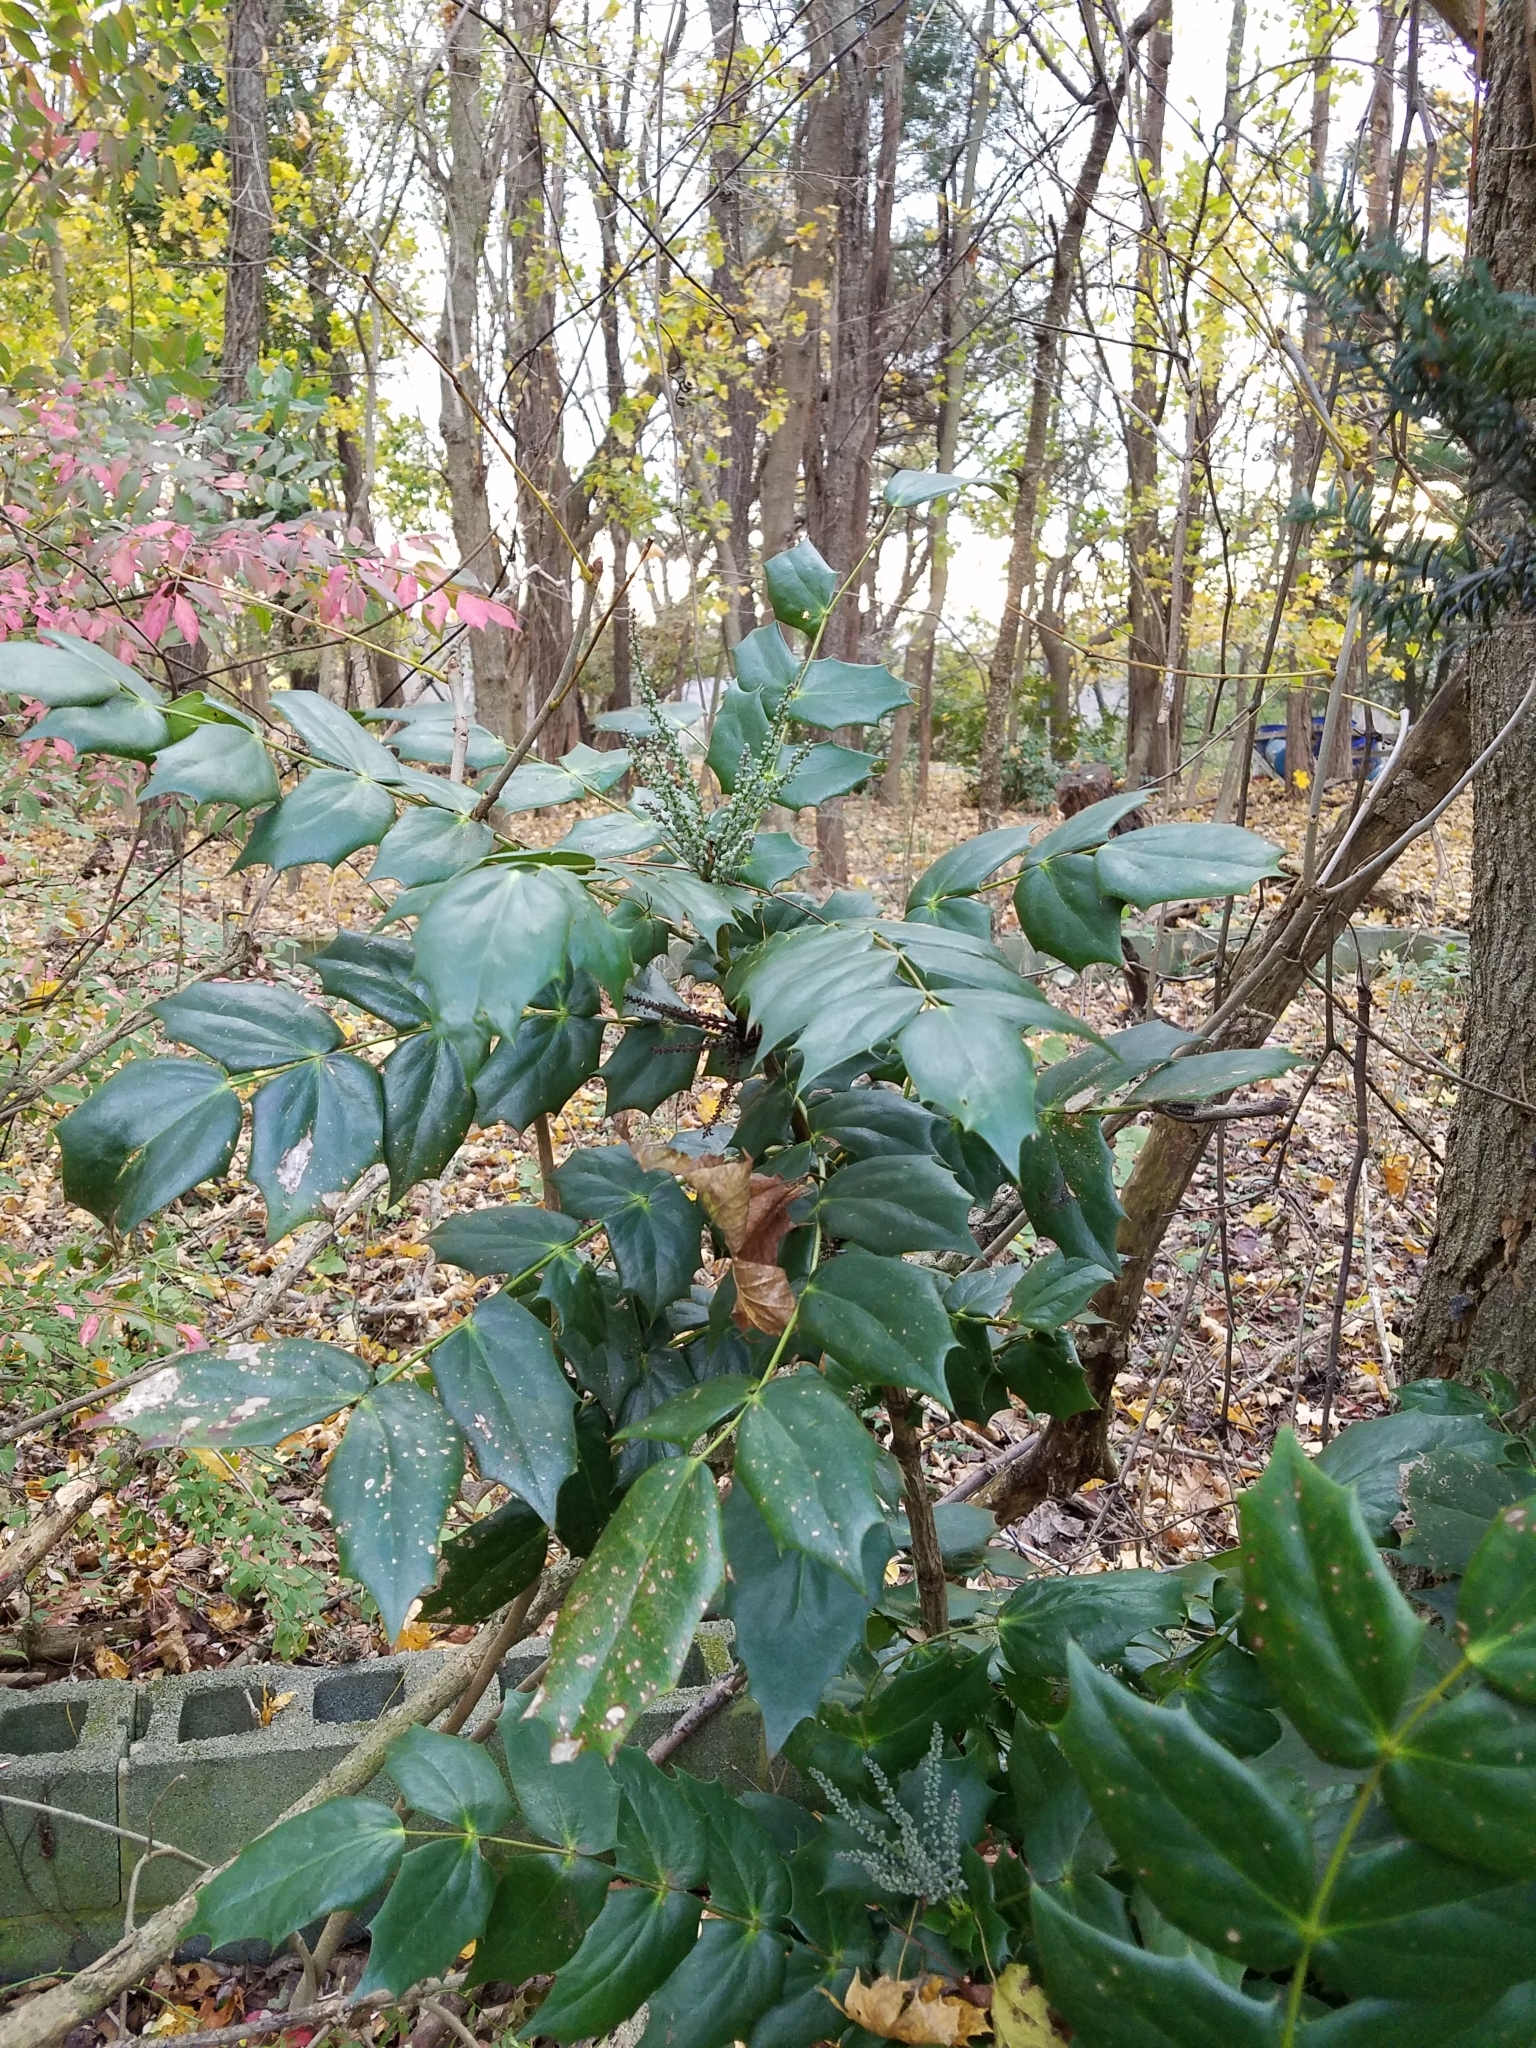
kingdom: Plantae
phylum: Tracheophyta
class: Magnoliopsida
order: Ranunculales
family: Berberidaceae
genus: Mahonia
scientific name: Mahonia bealei
